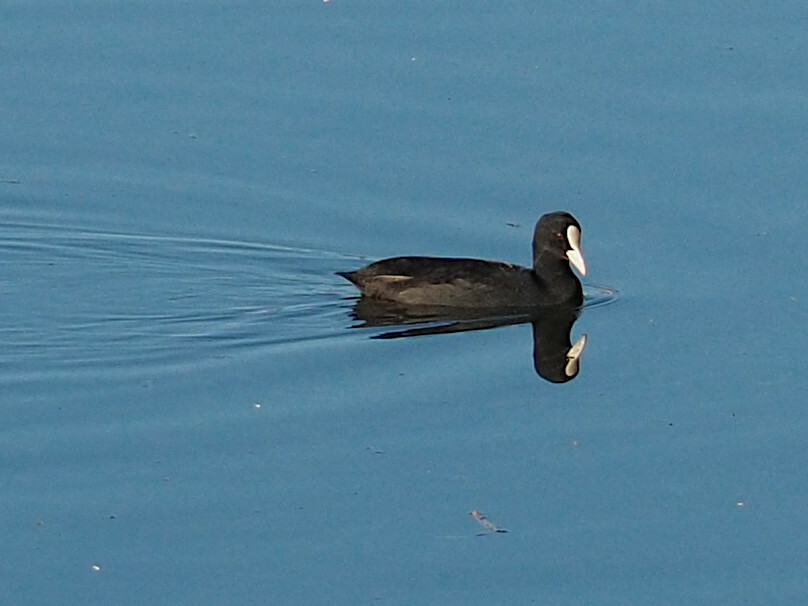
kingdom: Animalia
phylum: Chordata
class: Aves
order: Gruiformes
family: Rallidae
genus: Fulica
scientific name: Fulica atra
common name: Eurasian coot
